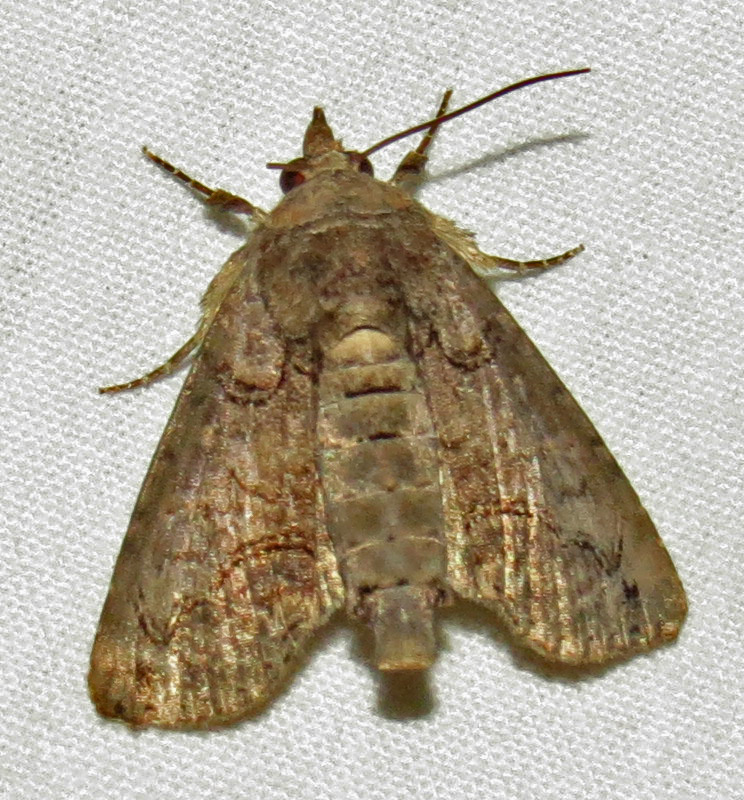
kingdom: Animalia
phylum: Arthropoda
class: Insecta
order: Lepidoptera
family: Euteliidae
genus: Paectes
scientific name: Paectes abrostoloides
